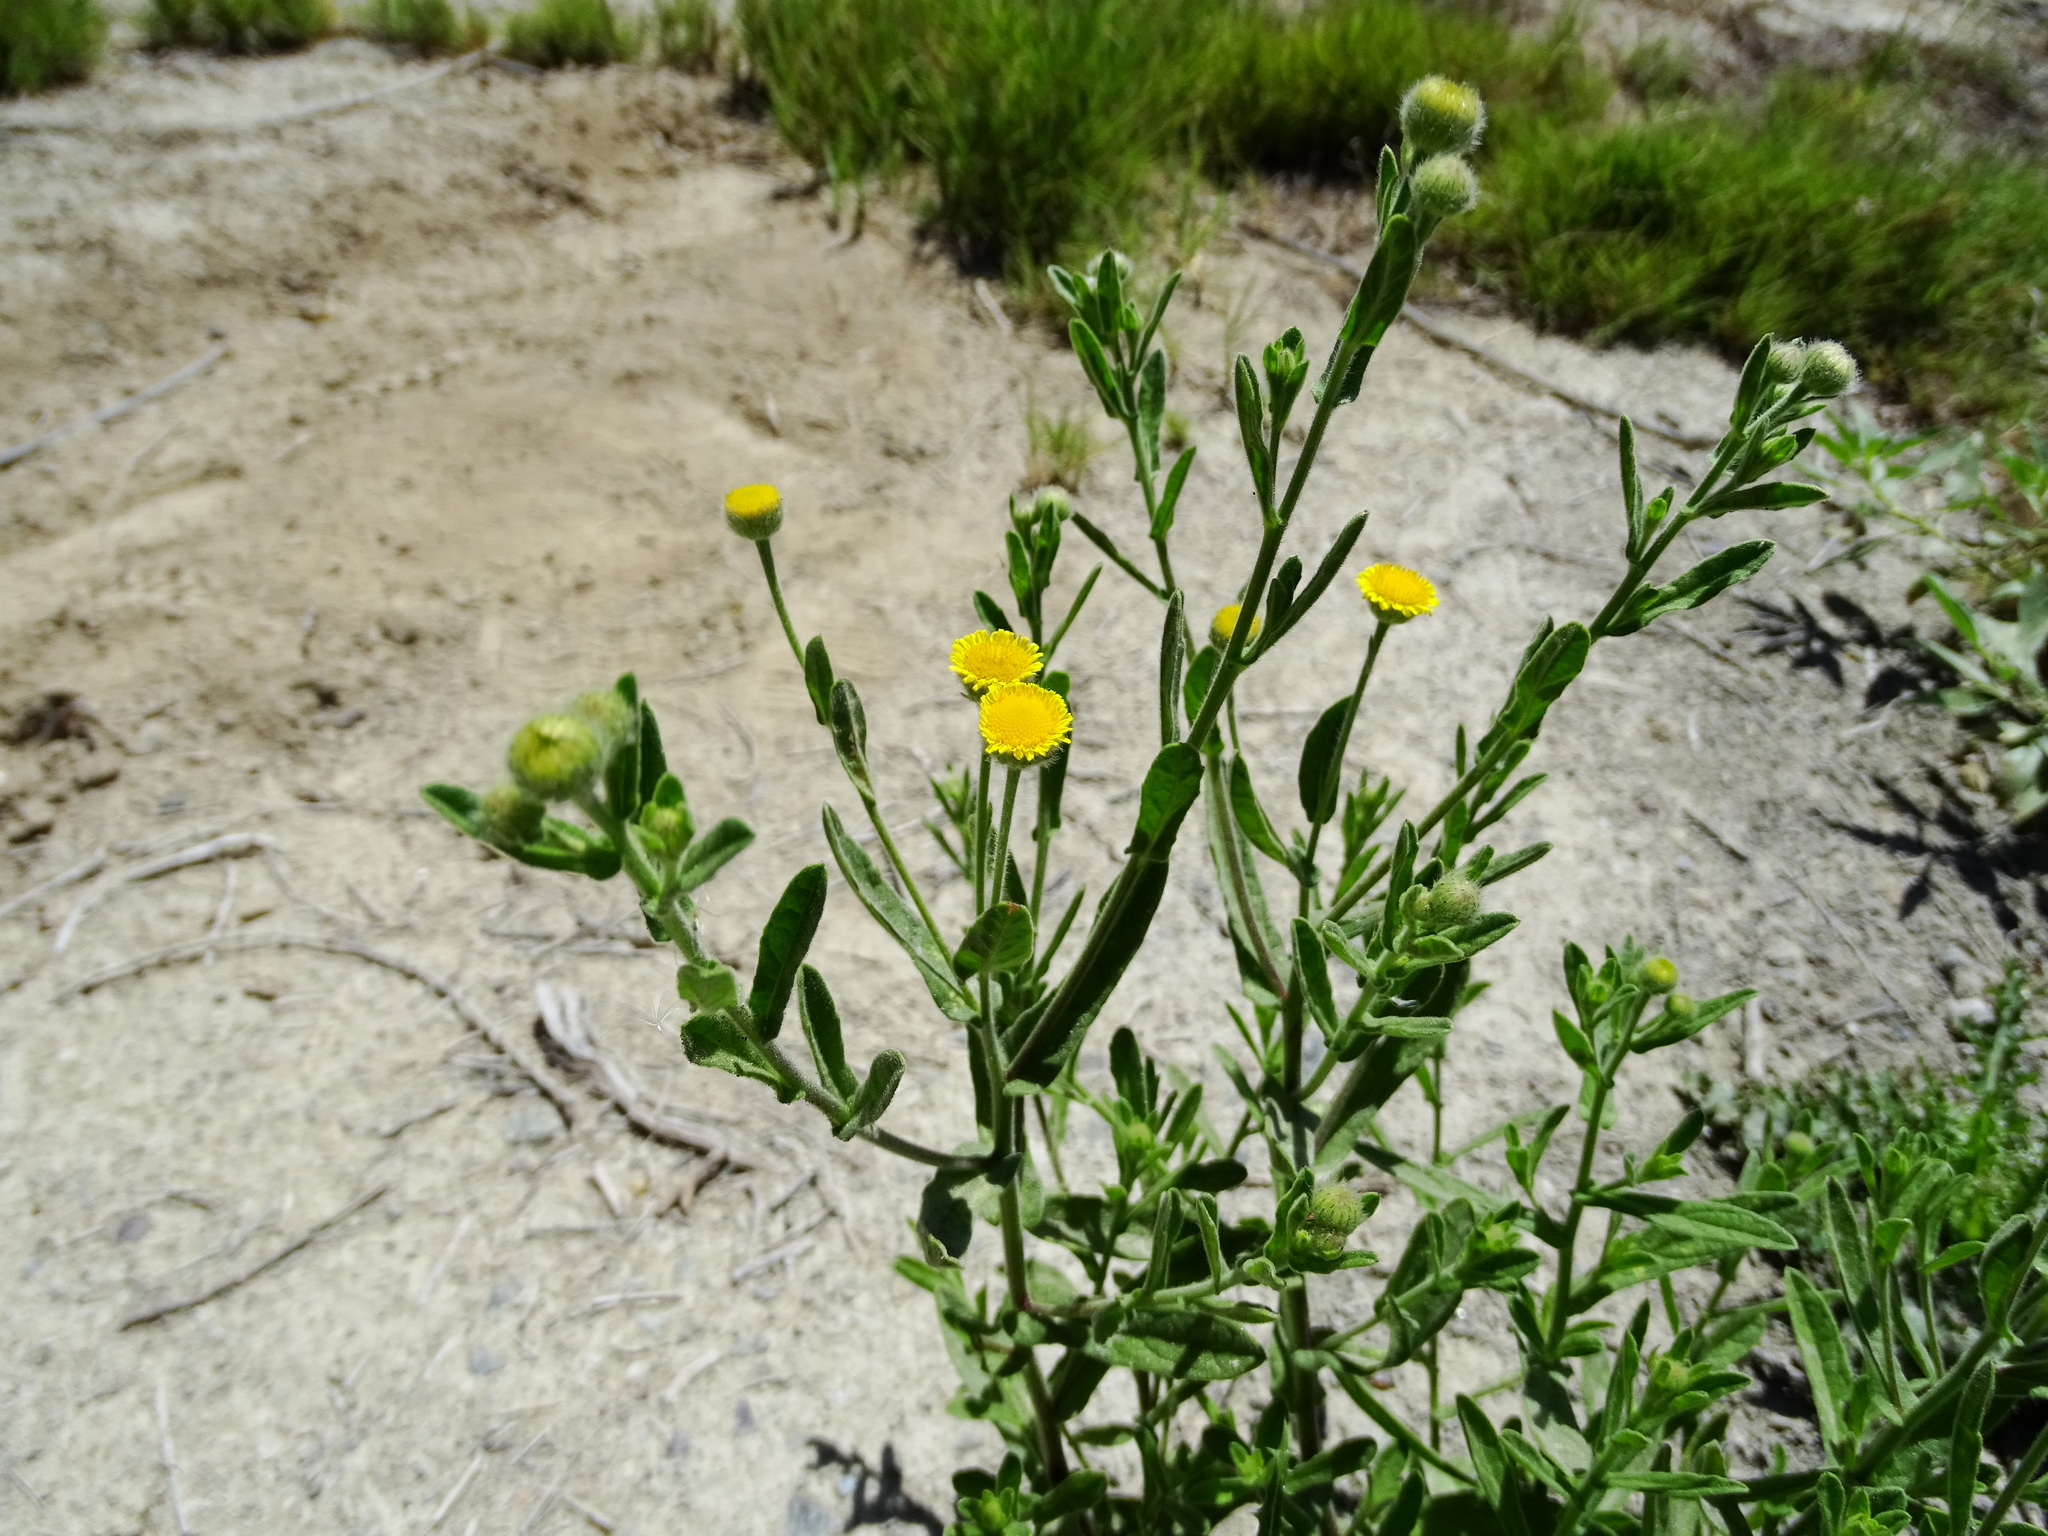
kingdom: Plantae
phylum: Tracheophyta
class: Magnoliopsida
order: Asterales
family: Asteraceae
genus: Pulicaria
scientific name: Pulicaria paludosa
